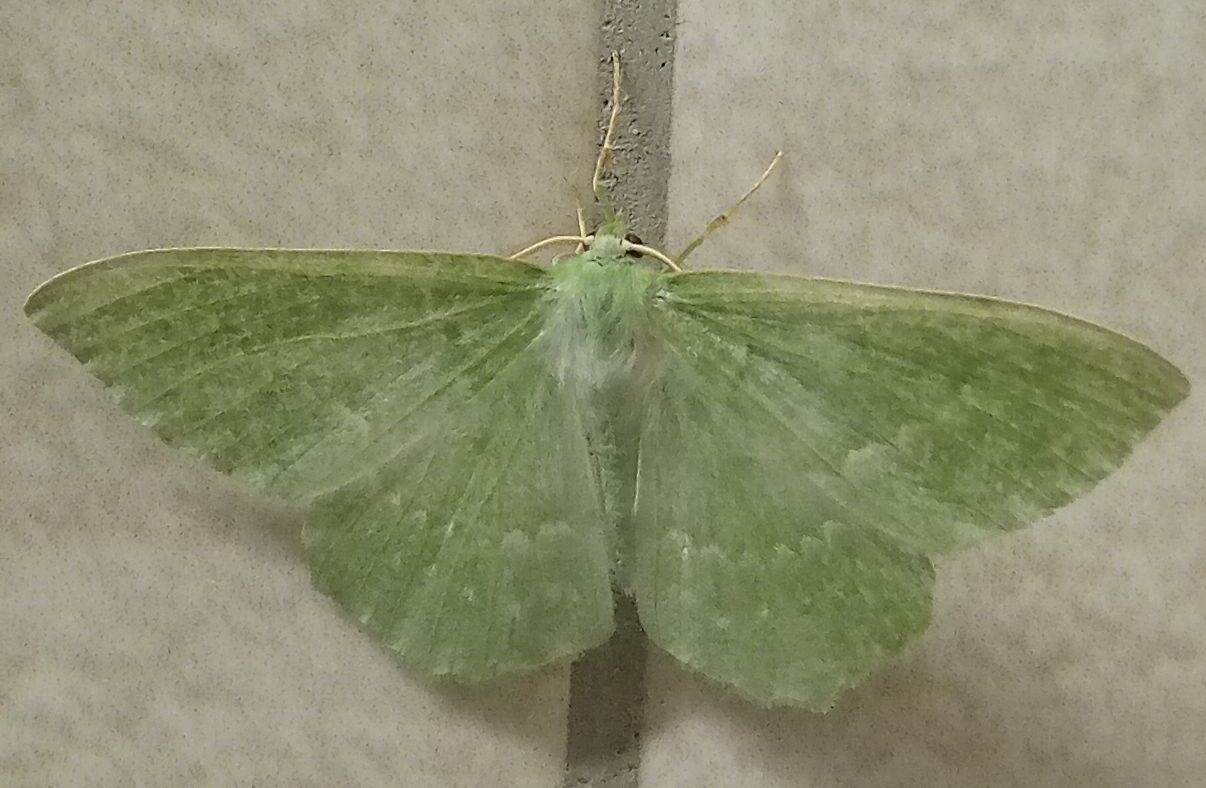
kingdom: Animalia
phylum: Arthropoda
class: Insecta
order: Lepidoptera
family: Geometridae
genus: Geometra
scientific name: Geometra papilionaria
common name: Large emerald
